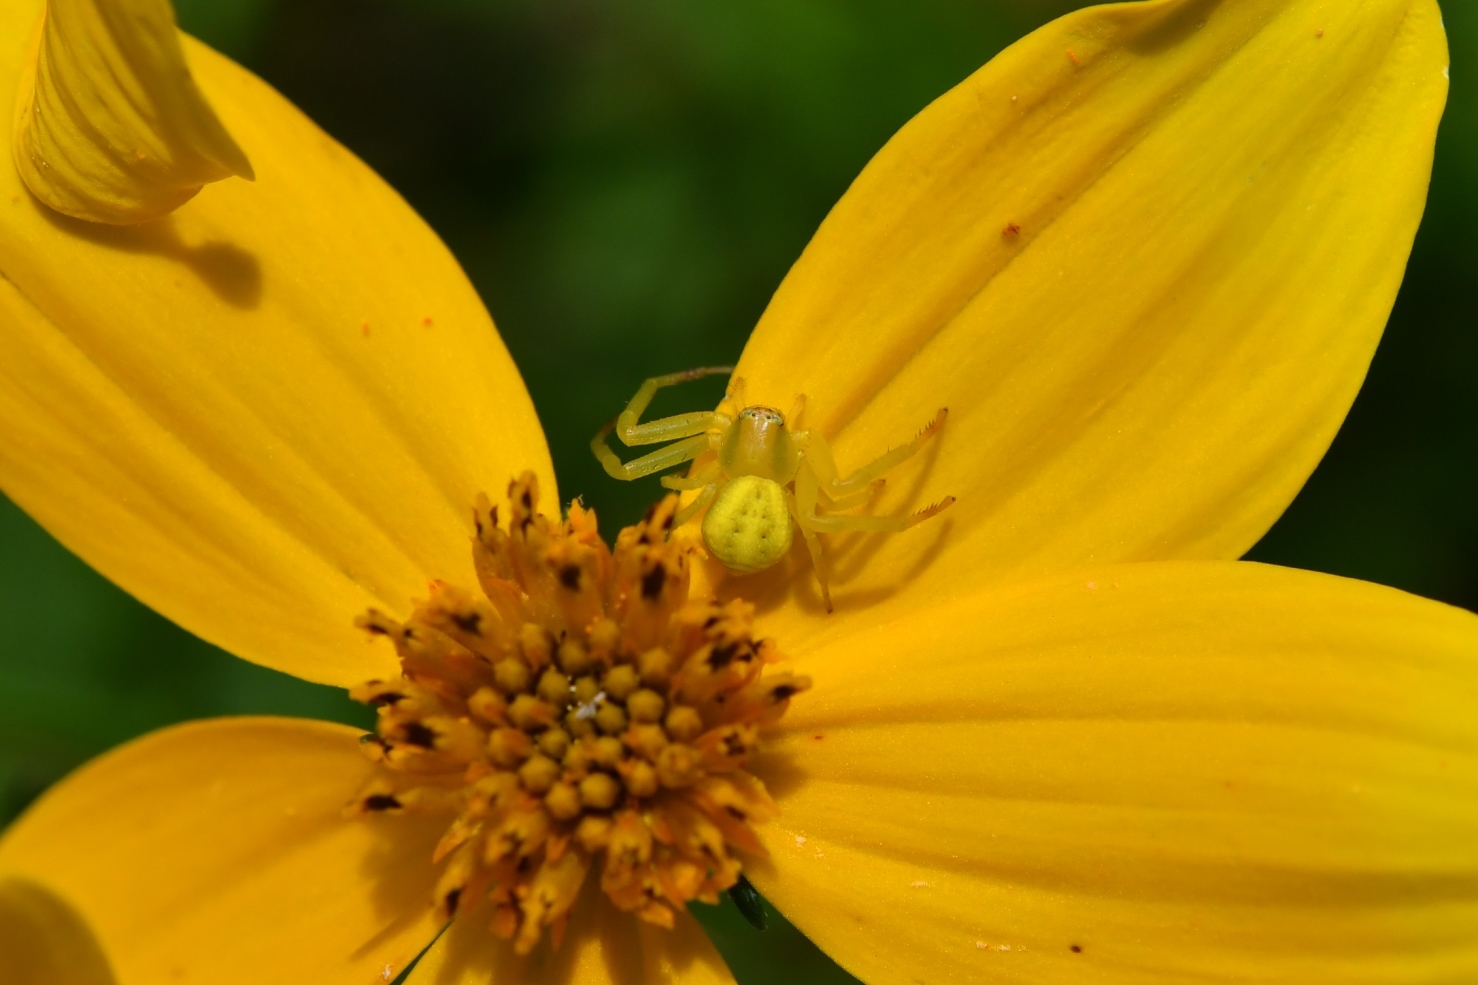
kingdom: Animalia
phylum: Arthropoda
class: Arachnida
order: Araneae
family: Thomisidae
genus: Misumena
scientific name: Misumena vatia
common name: Goldenrod crab spider
